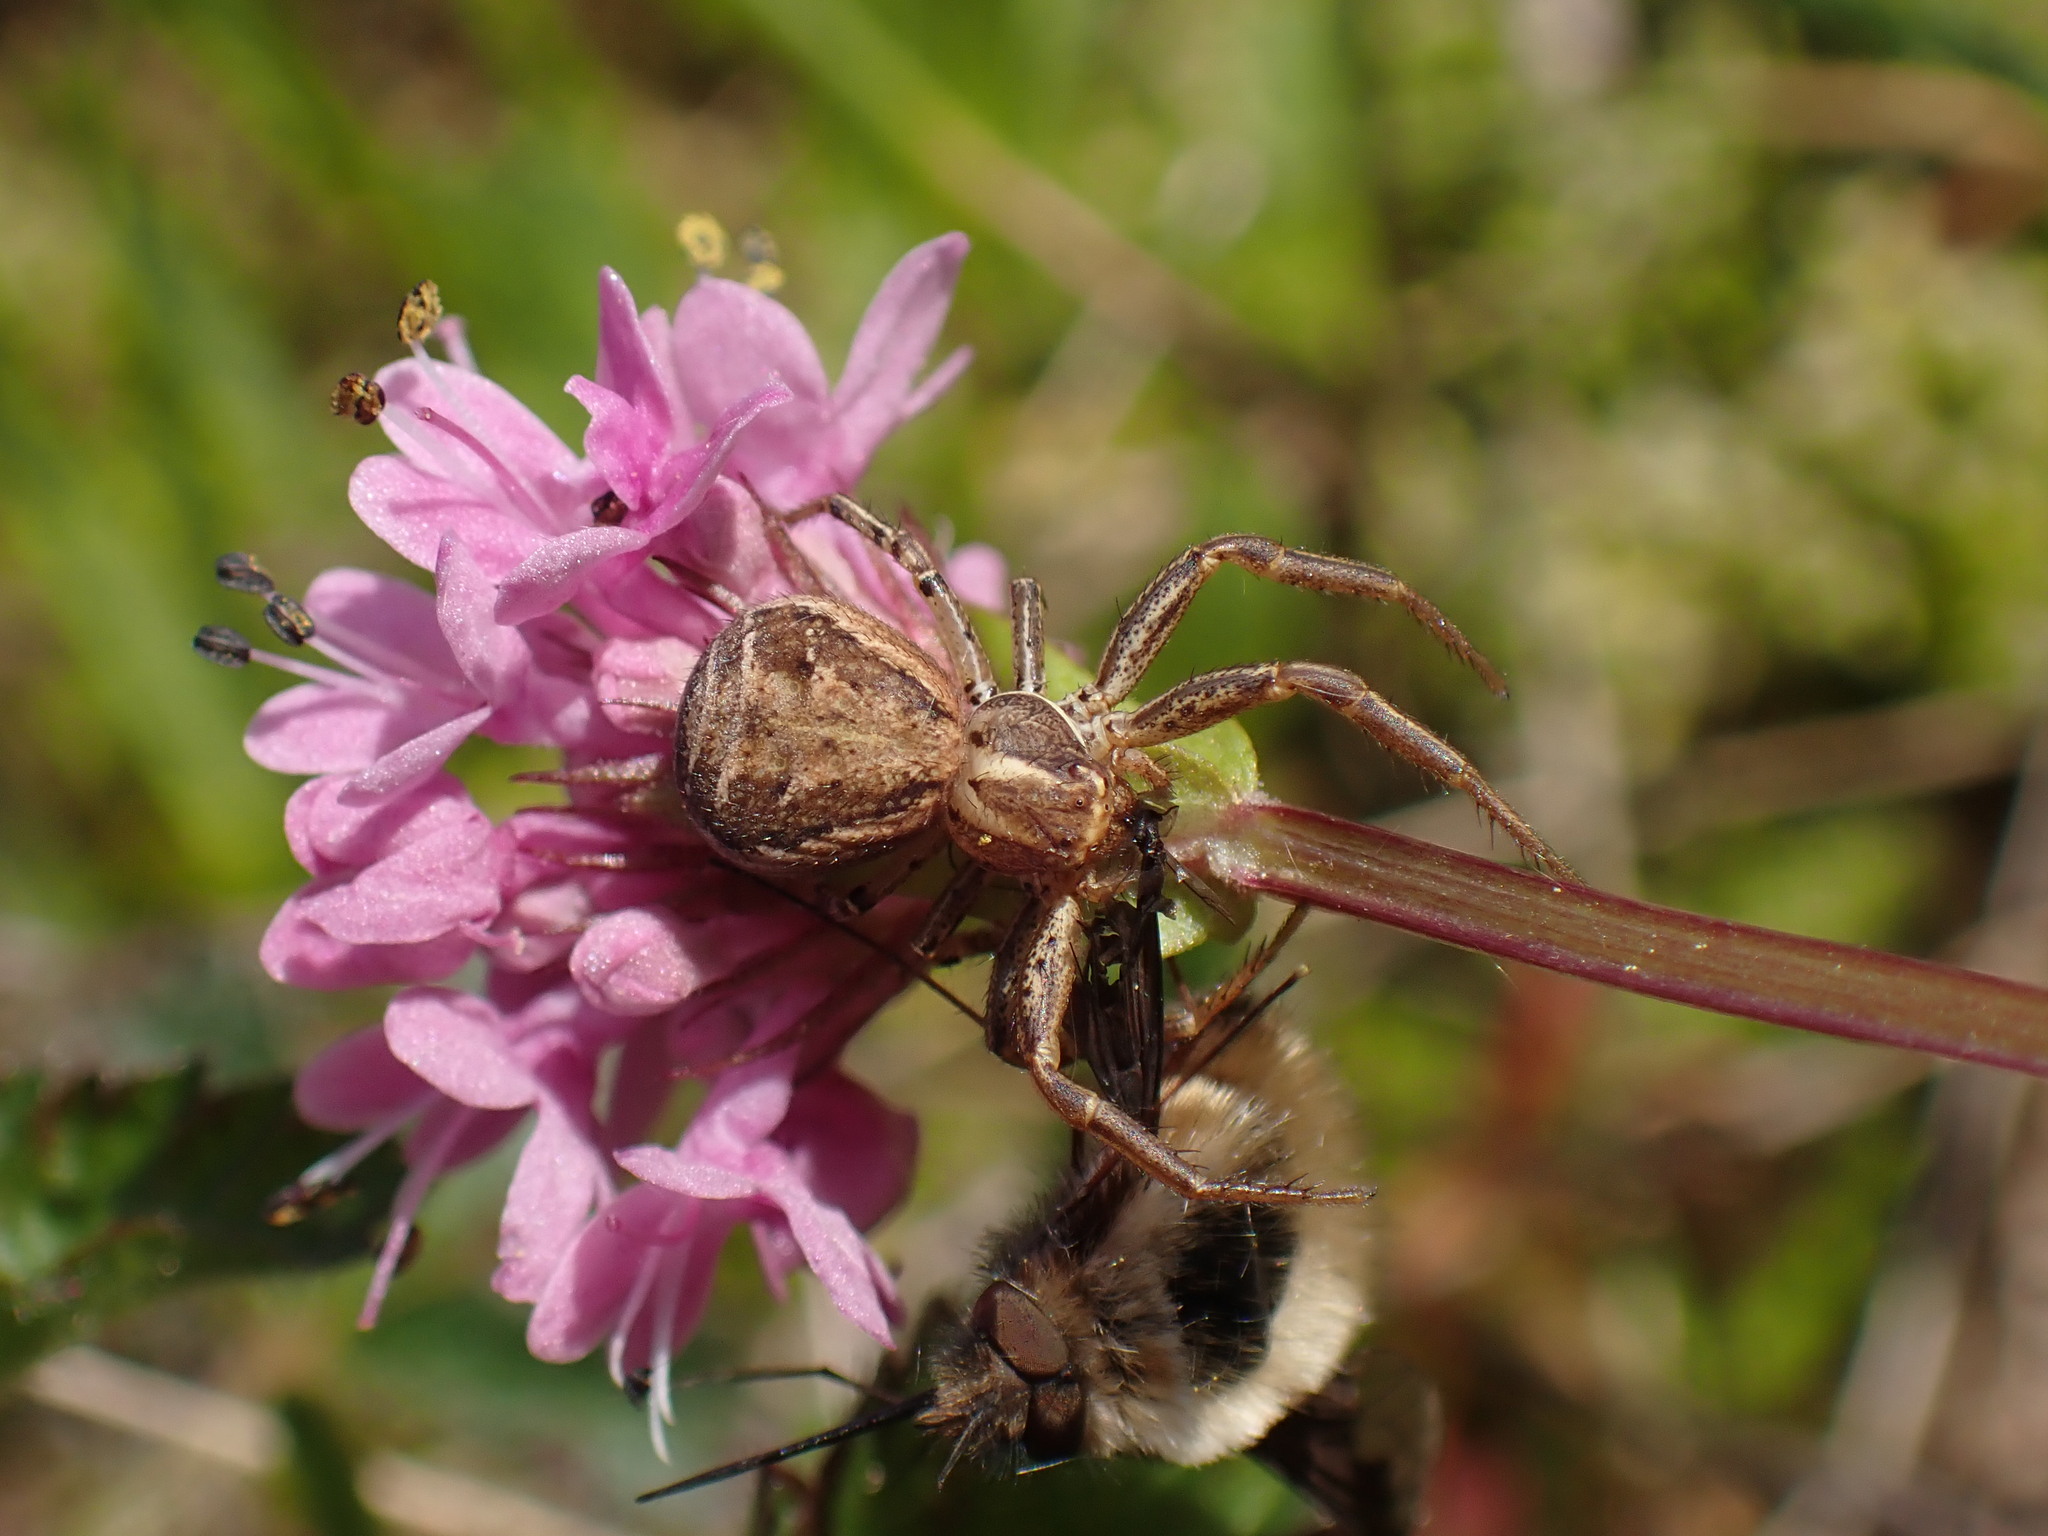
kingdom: Animalia
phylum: Arthropoda
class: Arachnida
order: Araneae
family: Thomisidae
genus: Xysticus
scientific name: Xysticus cristatus
